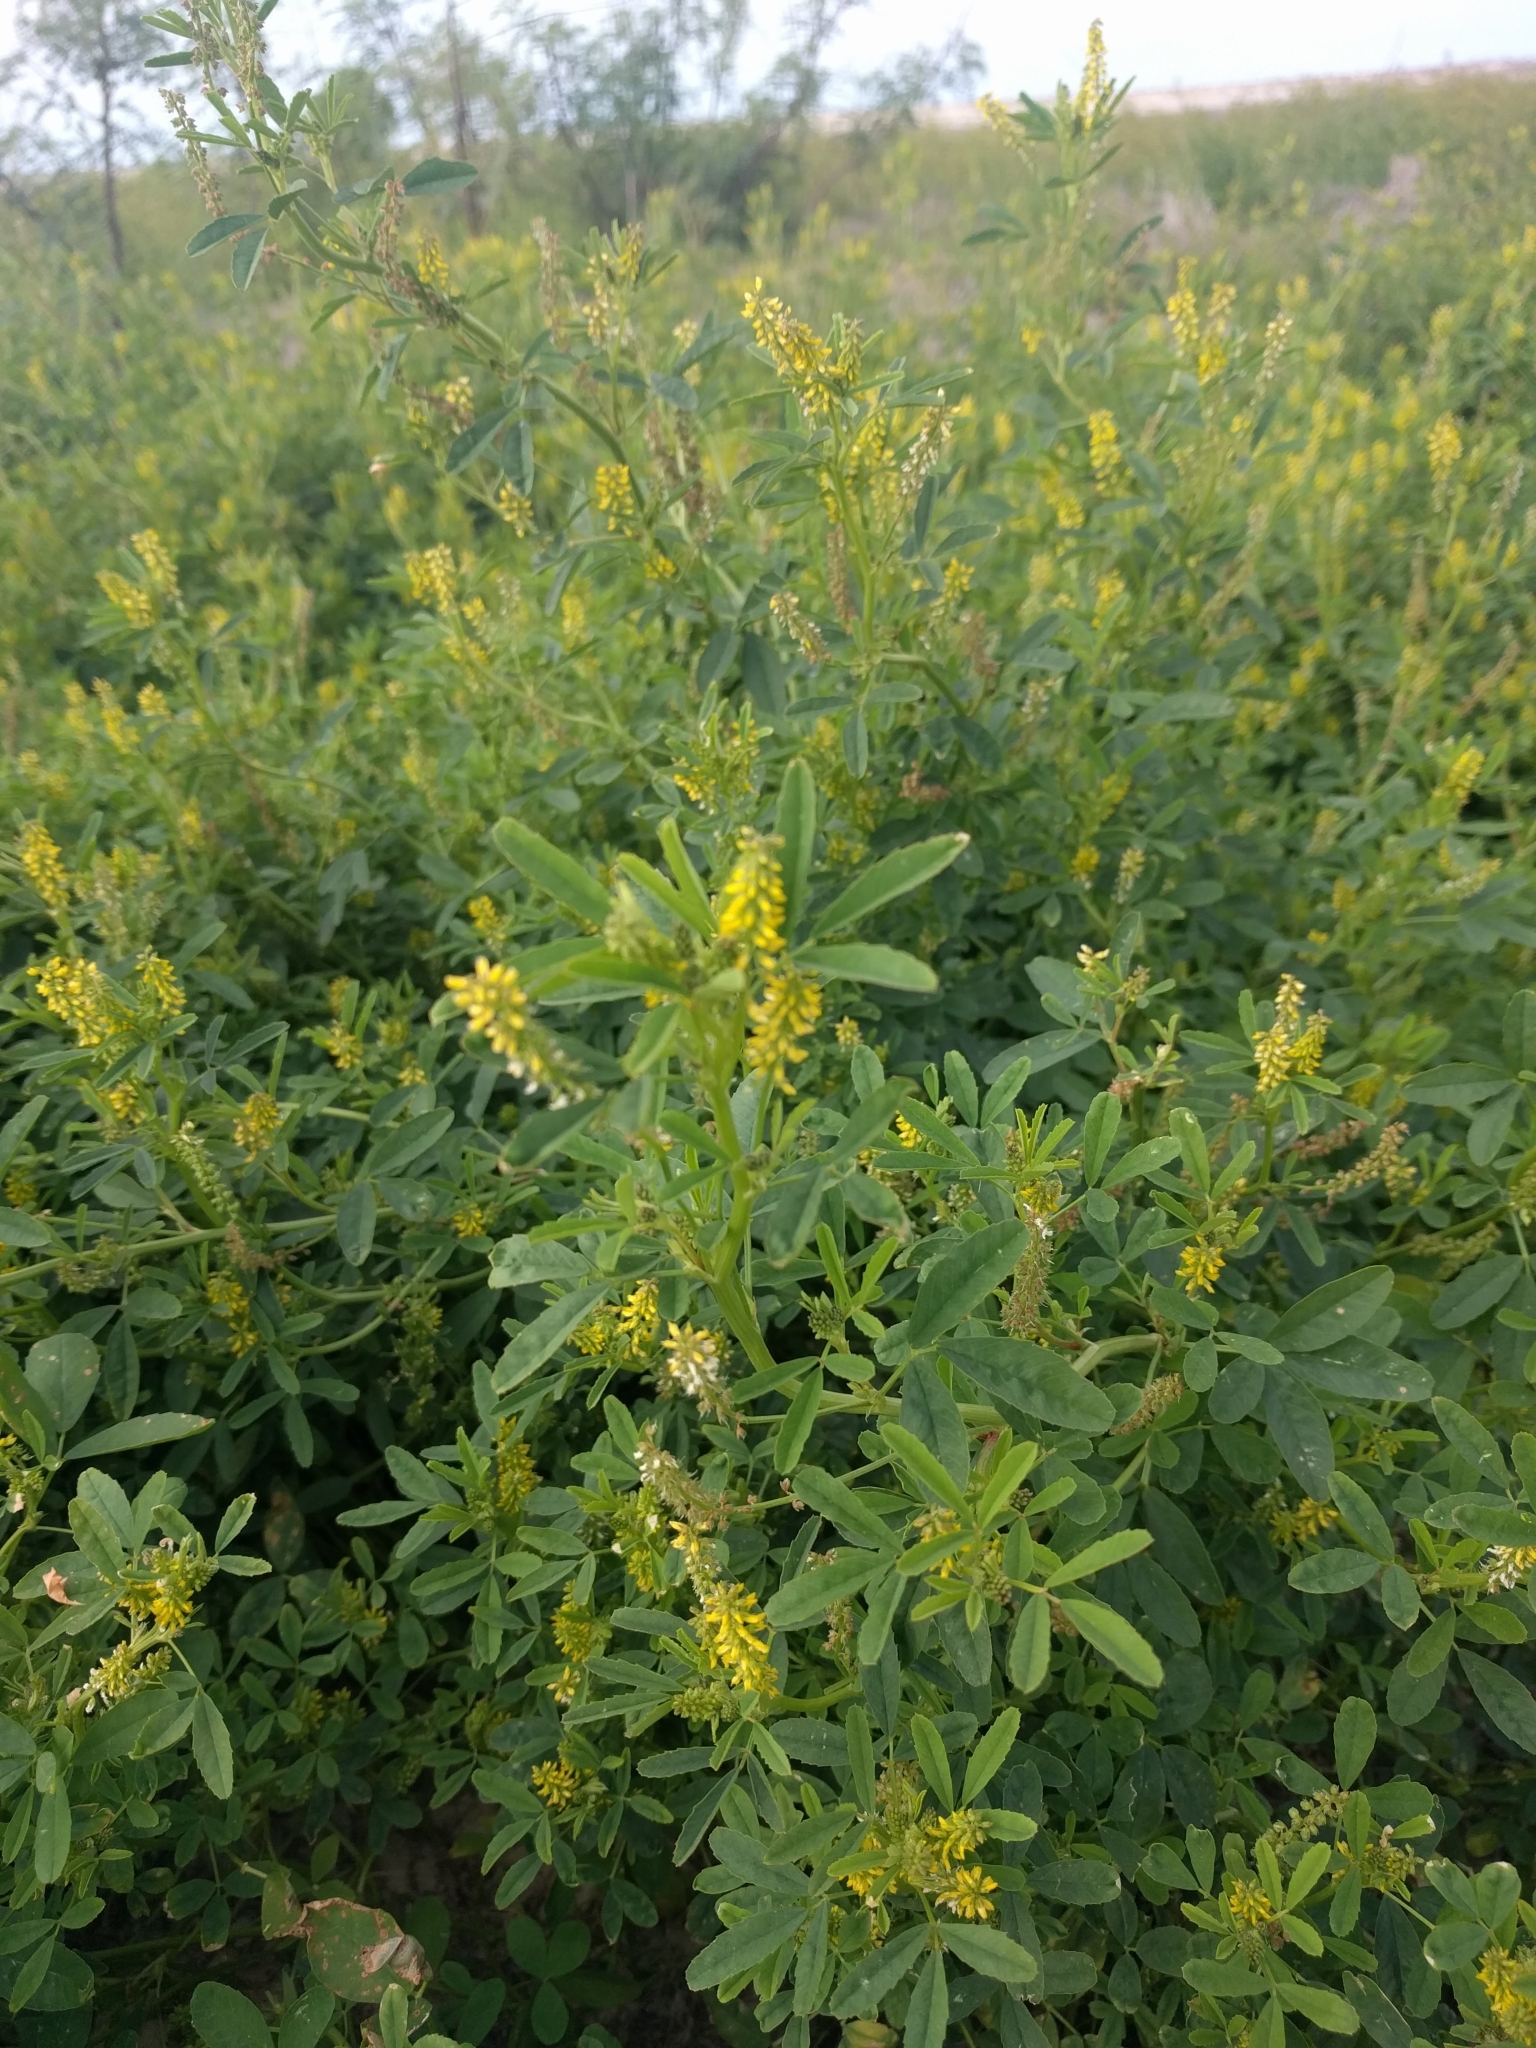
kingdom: Plantae
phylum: Tracheophyta
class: Magnoliopsida
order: Fabales
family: Fabaceae
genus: Melilotus
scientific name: Melilotus indicus
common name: Small melilot
